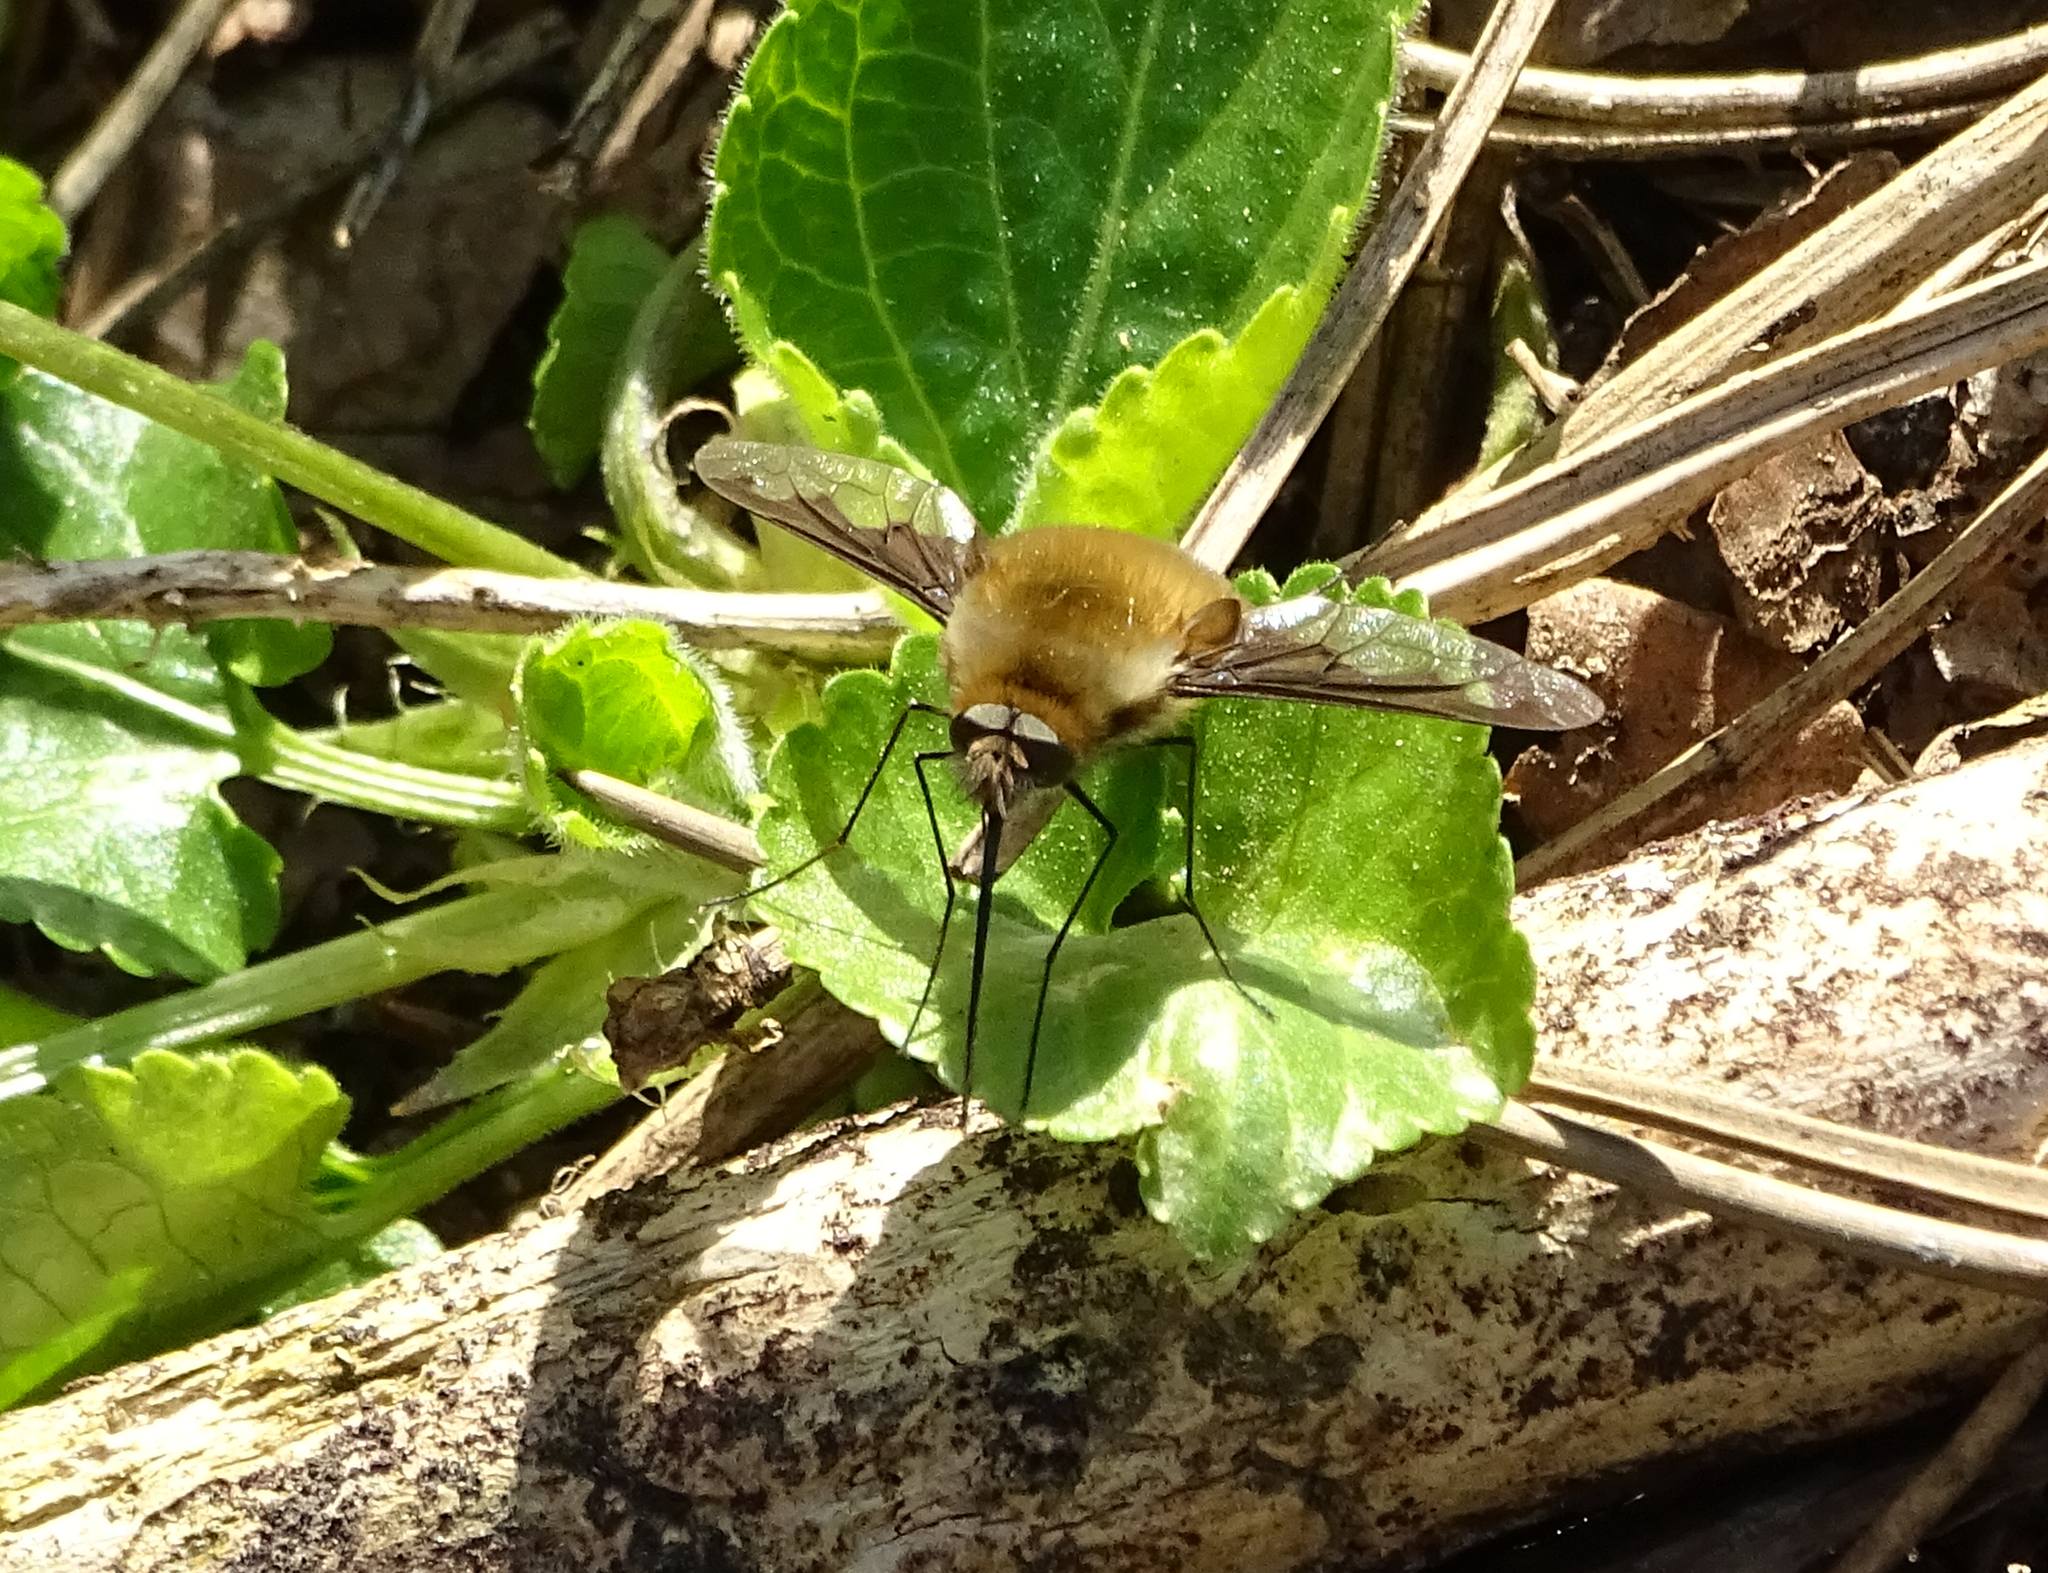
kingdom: Animalia
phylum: Arthropoda
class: Insecta
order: Diptera
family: Bombyliidae
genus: Bombylius
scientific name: Bombylius major
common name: Bee fly
